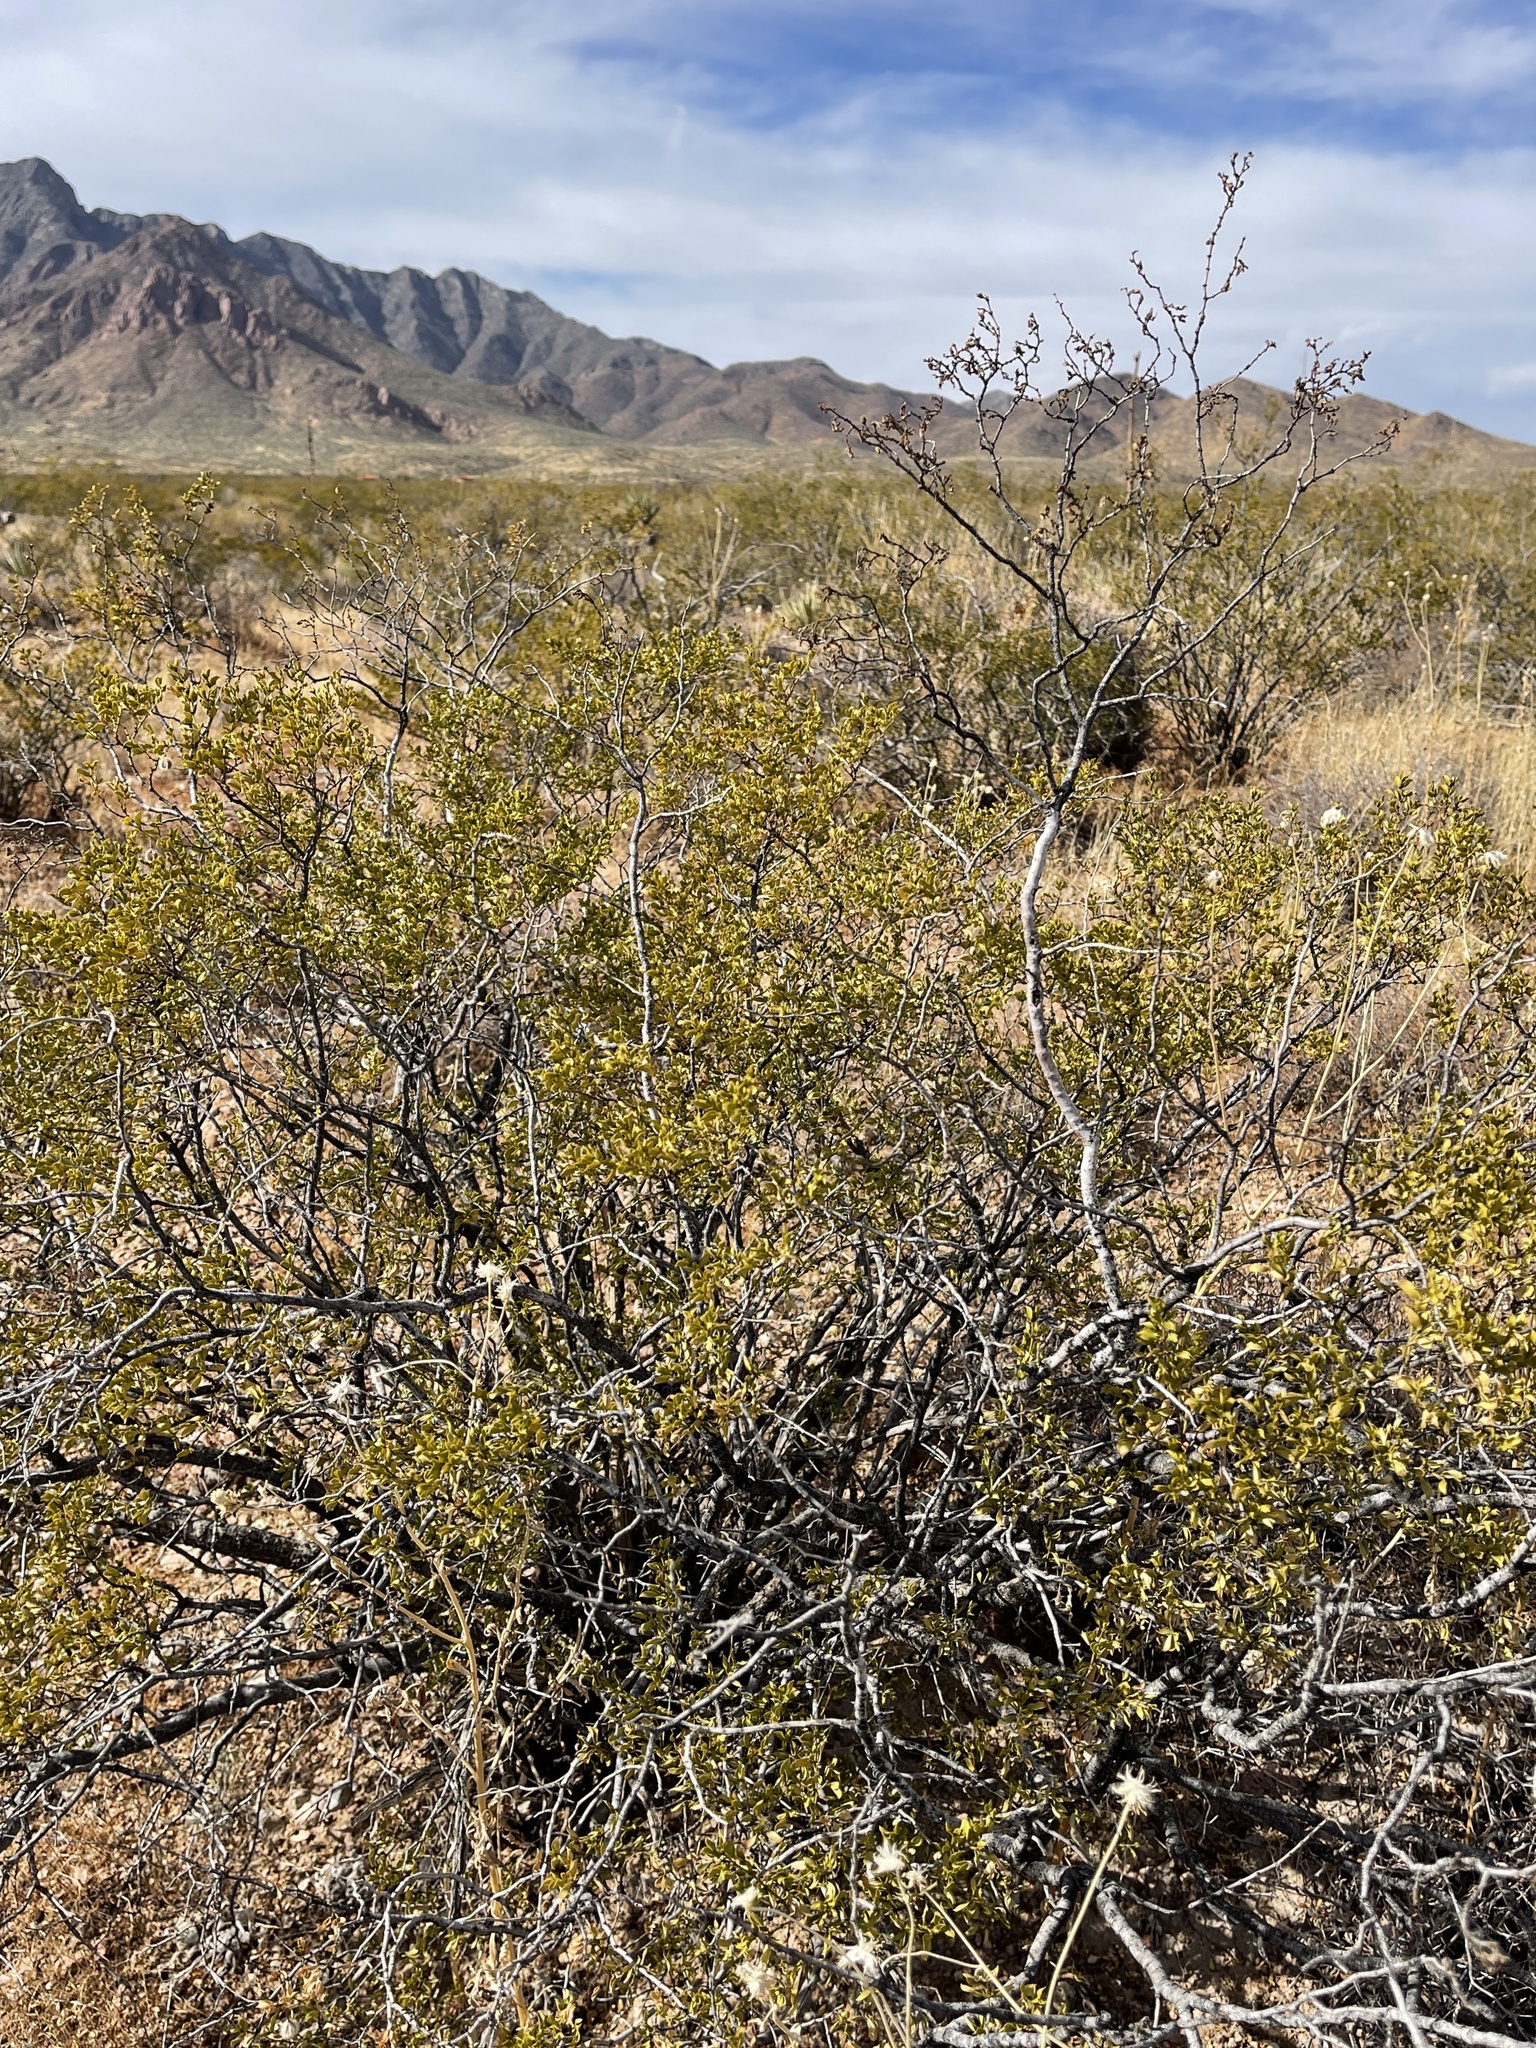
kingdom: Plantae
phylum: Tracheophyta
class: Magnoliopsida
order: Zygophyllales
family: Zygophyllaceae
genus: Larrea
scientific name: Larrea tridentata
